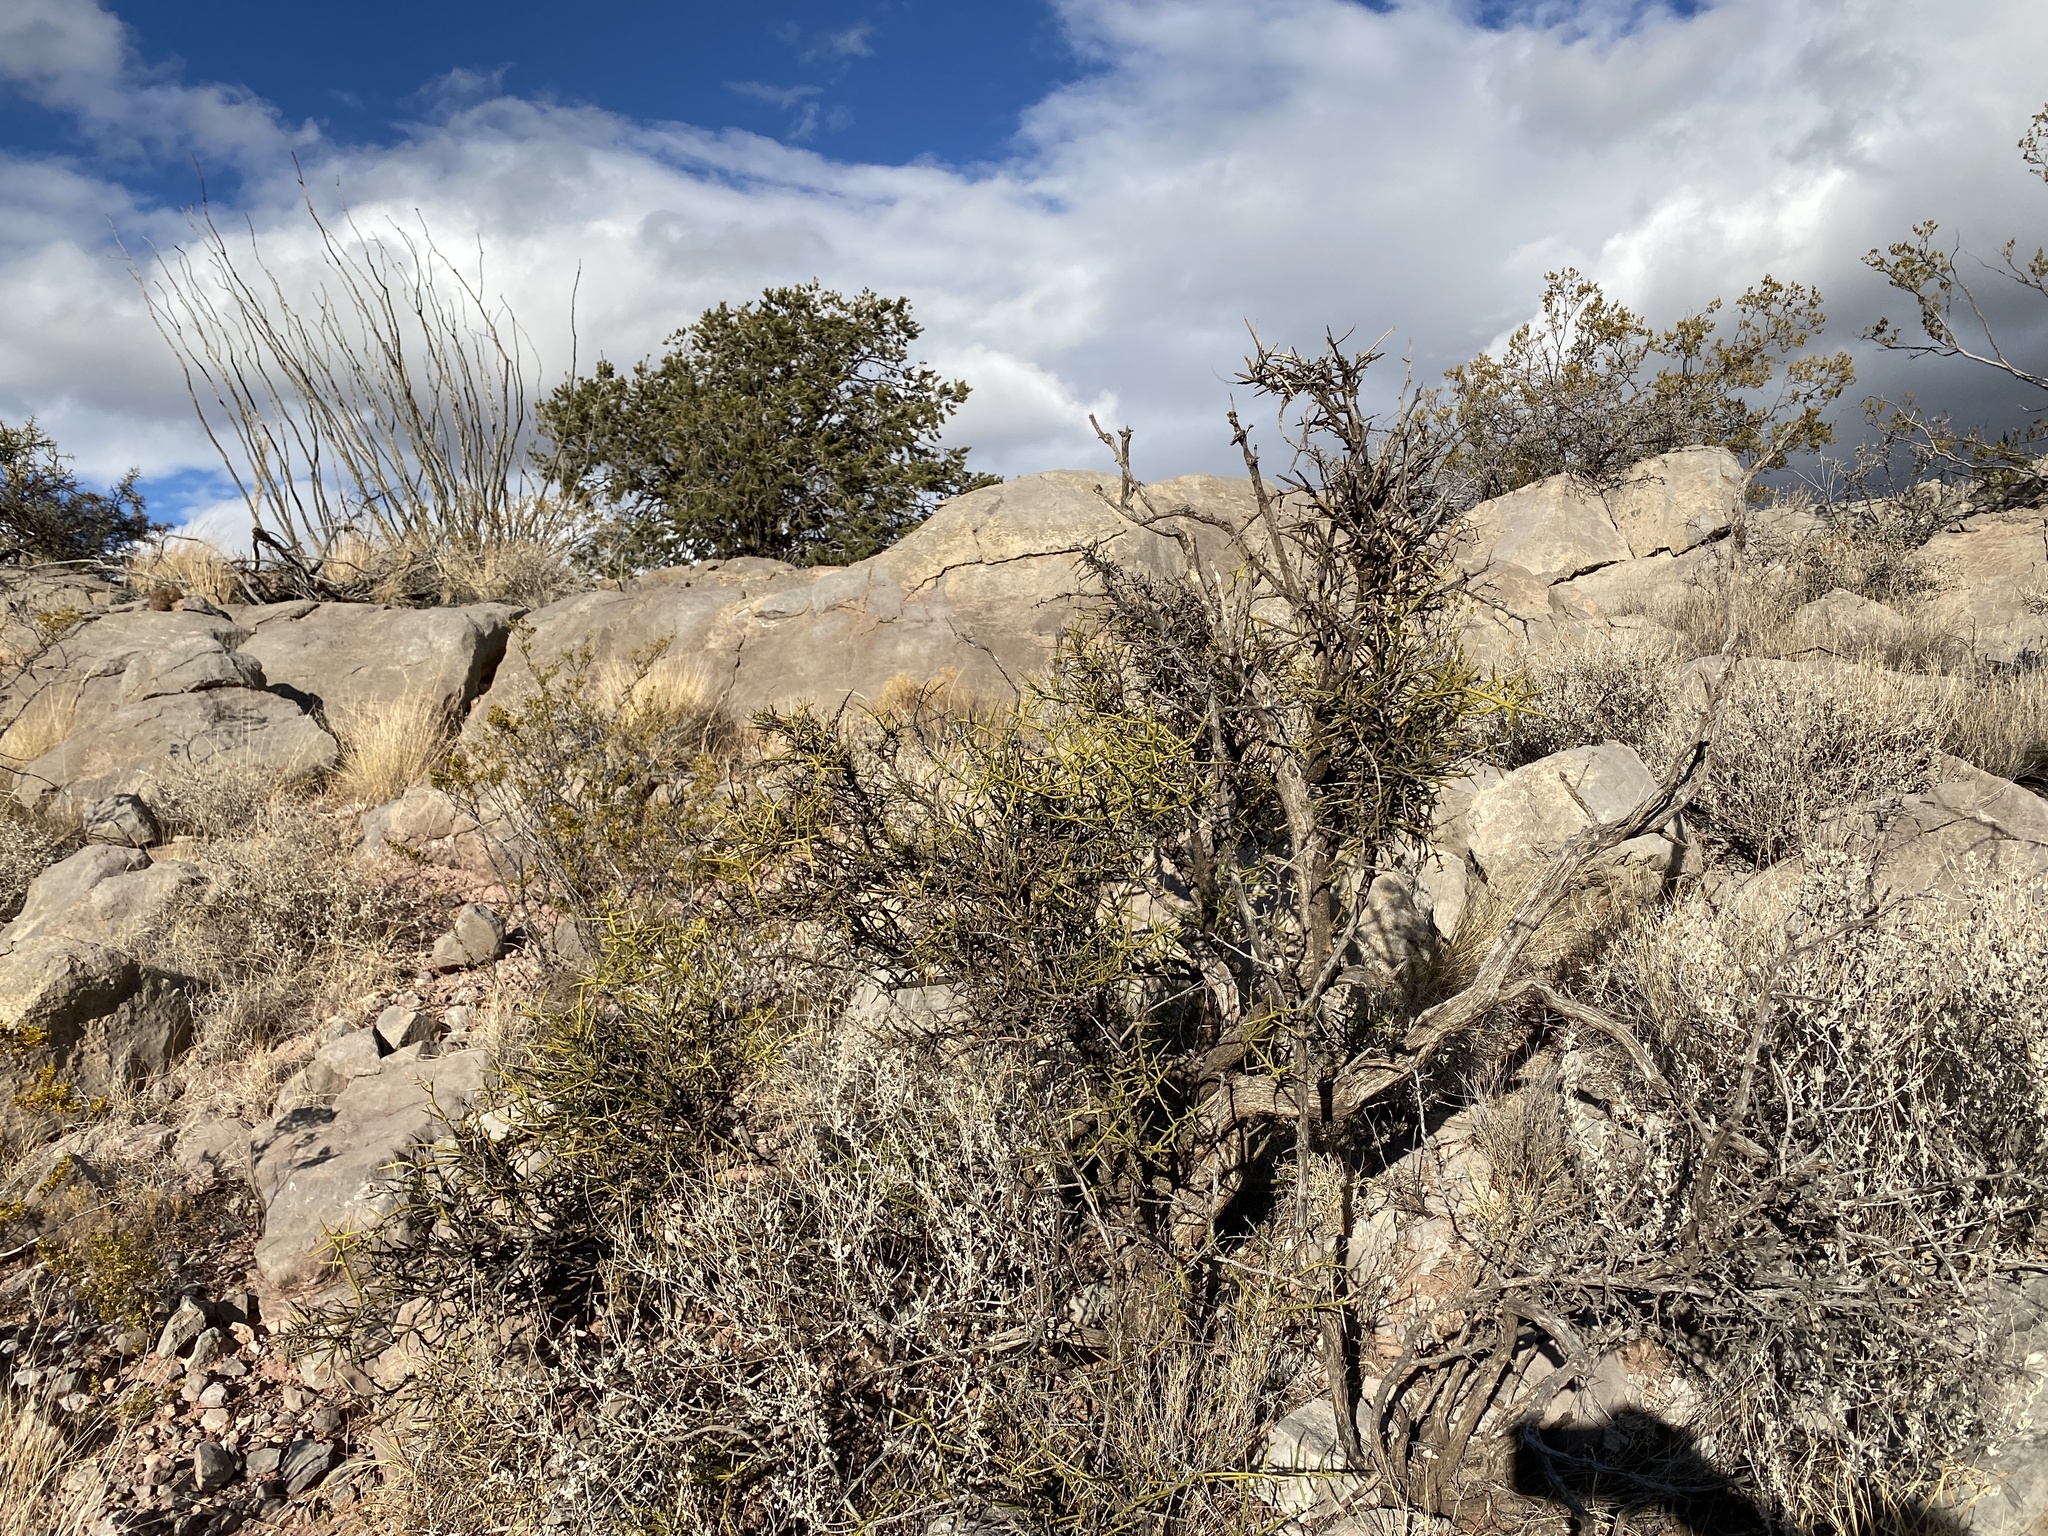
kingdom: Plantae
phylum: Tracheophyta
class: Magnoliopsida
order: Brassicales
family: Koeberliniaceae
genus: Koeberlinia
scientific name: Koeberlinia spinosa
